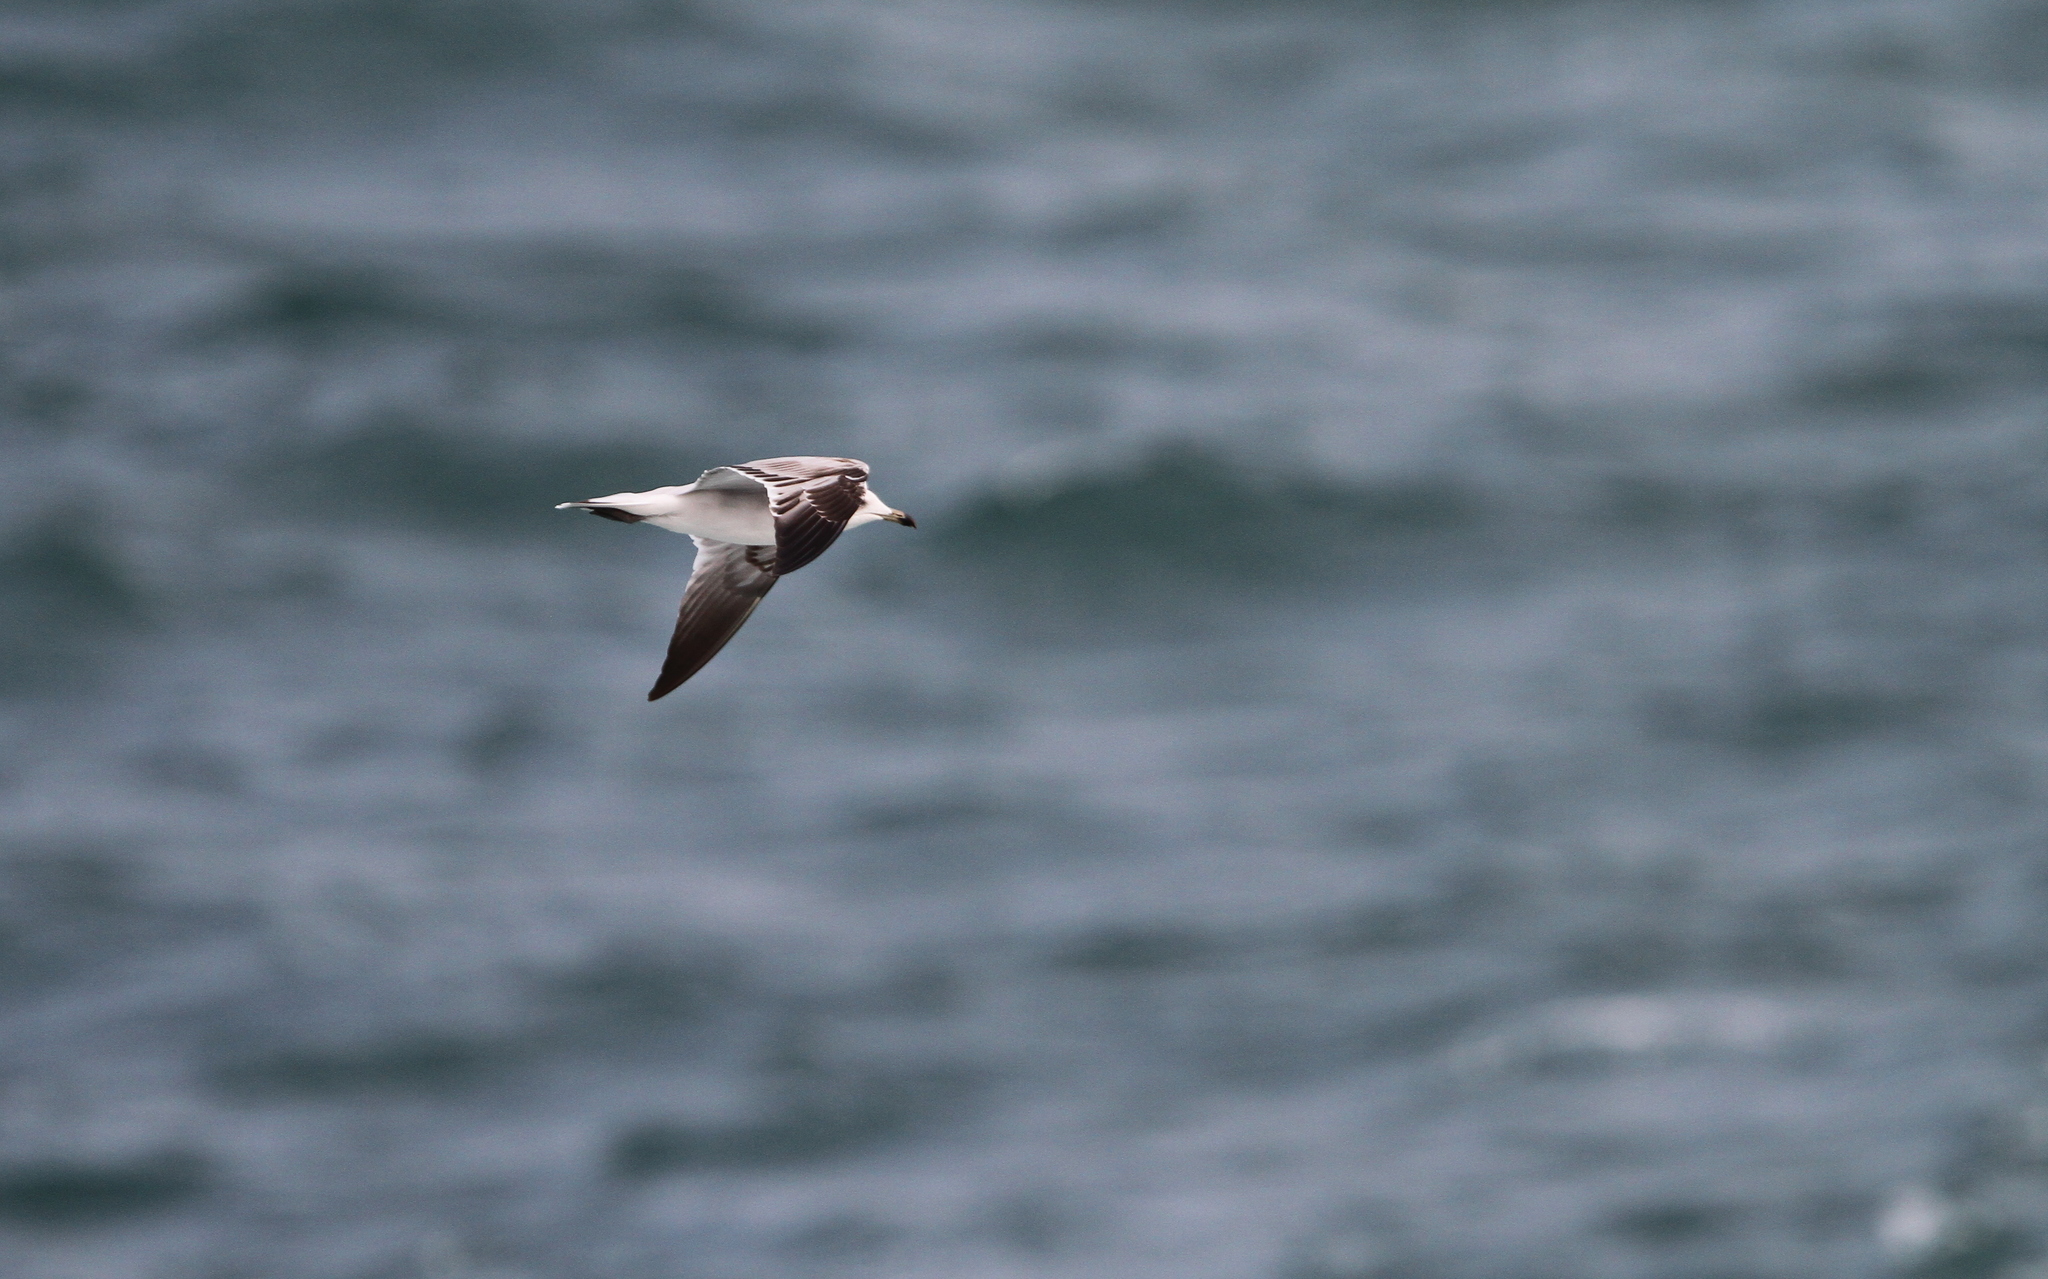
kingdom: Animalia
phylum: Chordata
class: Aves
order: Charadriiformes
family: Laridae
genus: Ichthyaetus
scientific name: Ichthyaetus audouinii
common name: Audouin's gull
